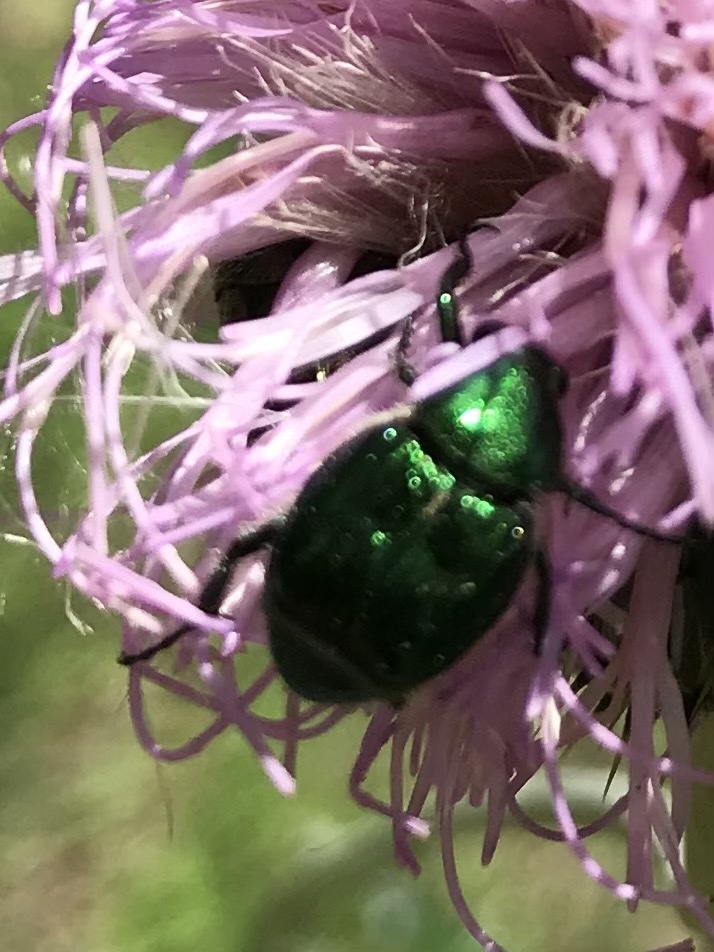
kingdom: Animalia
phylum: Arthropoda
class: Insecta
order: Coleoptera
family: Scarabaeidae
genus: Trichiotinus
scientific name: Trichiotinus lunulatus
